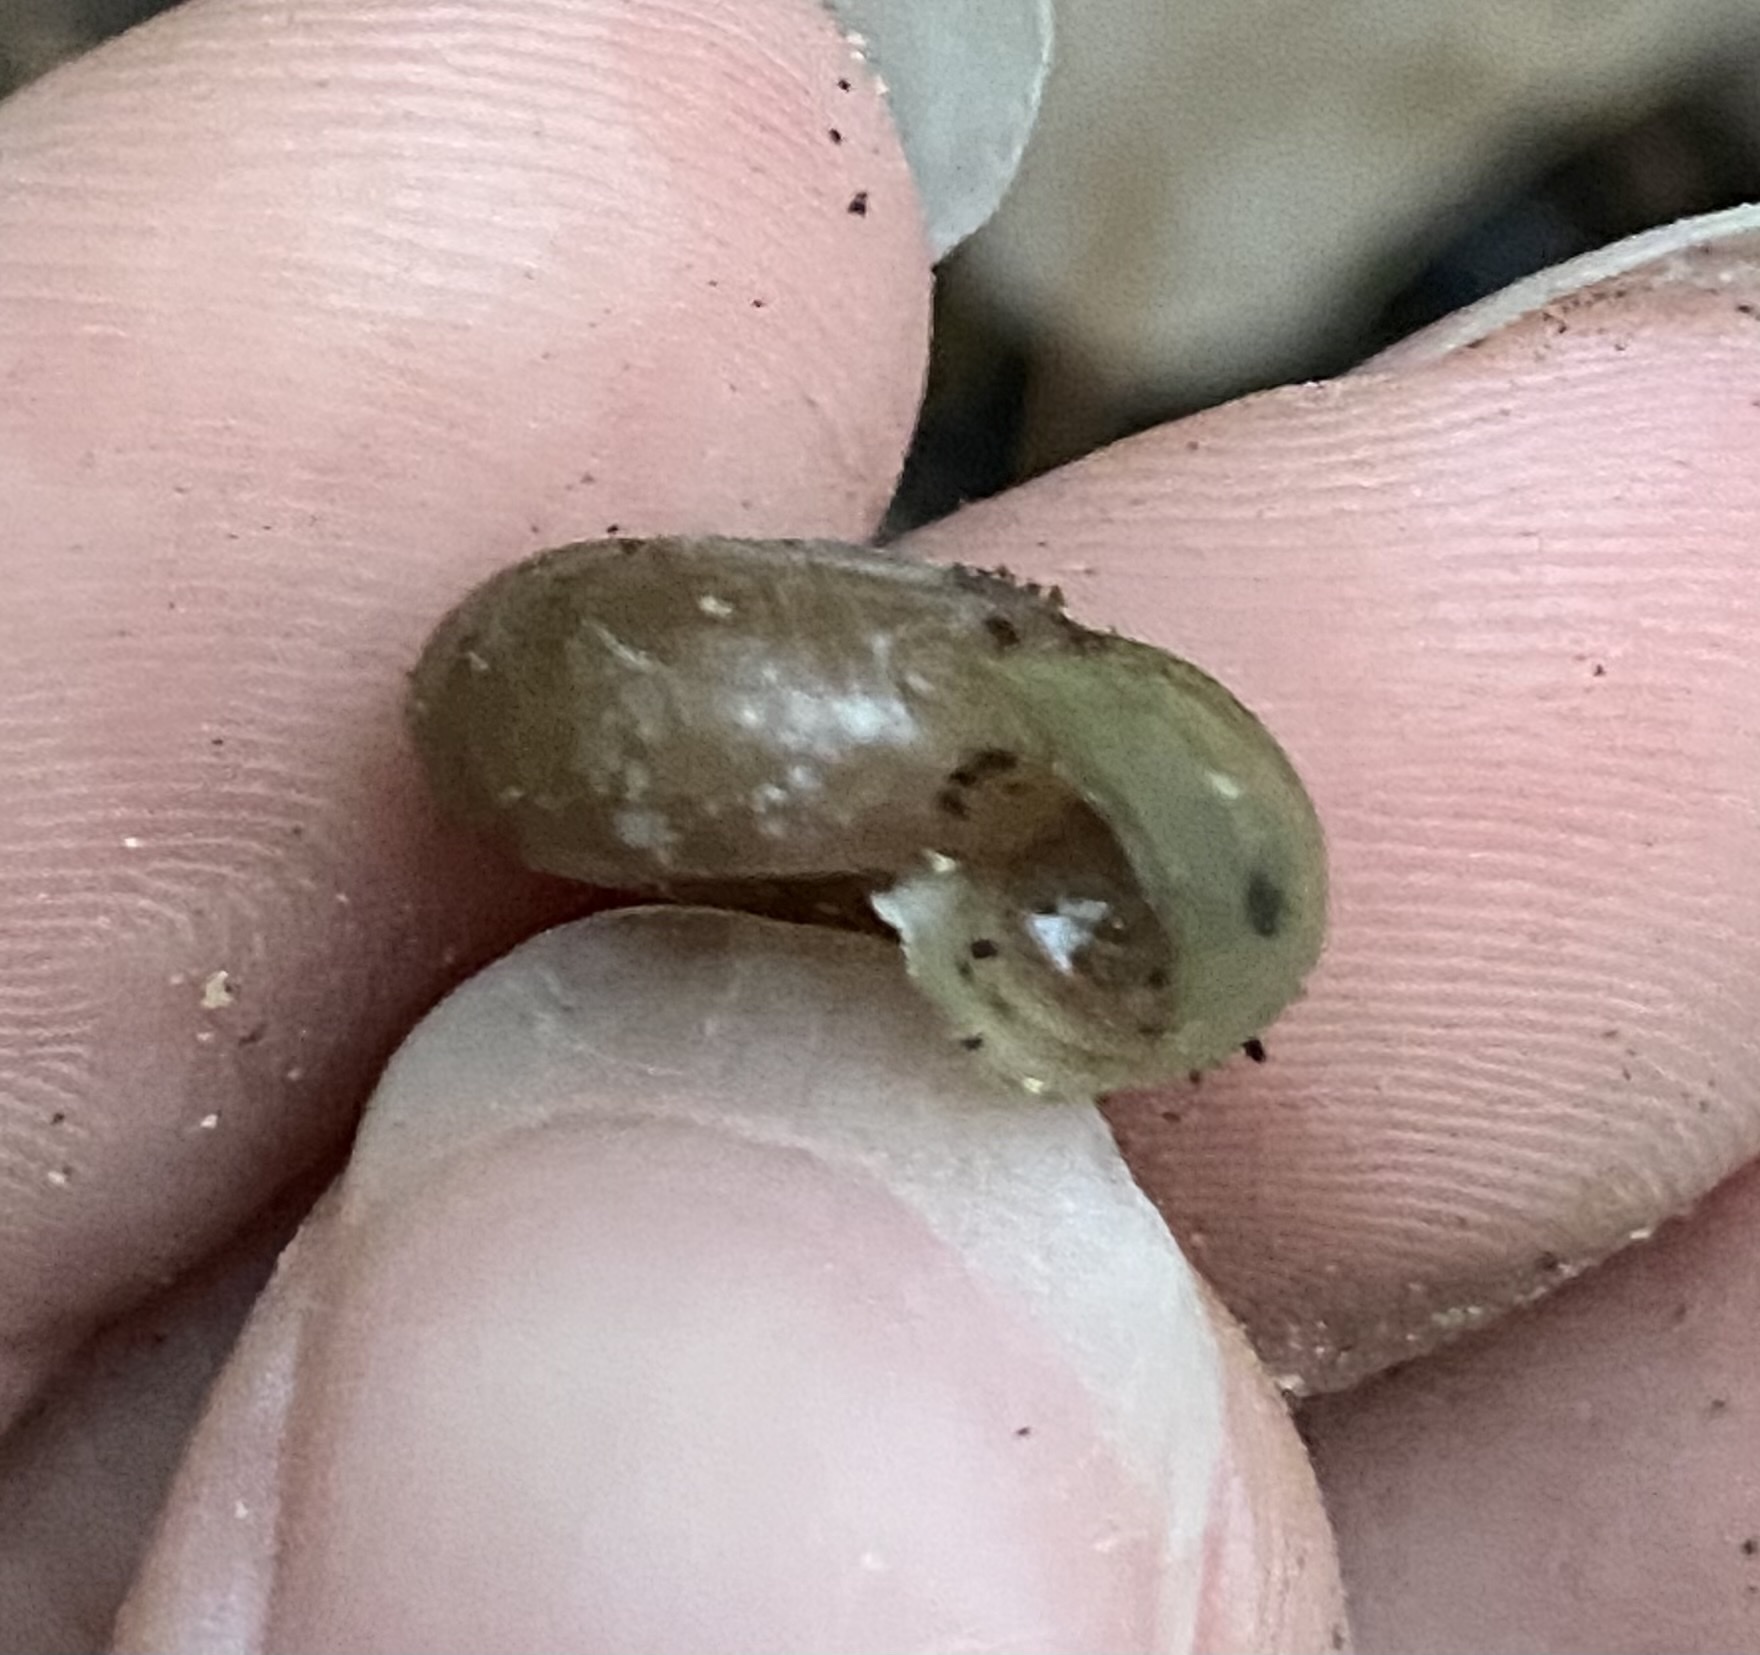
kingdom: Animalia
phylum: Mollusca
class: Gastropoda
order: Stylommatophora
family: Haplotrematidae
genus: Haplotrema
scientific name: Haplotrema concavum
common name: Gray-foot lancetooth
